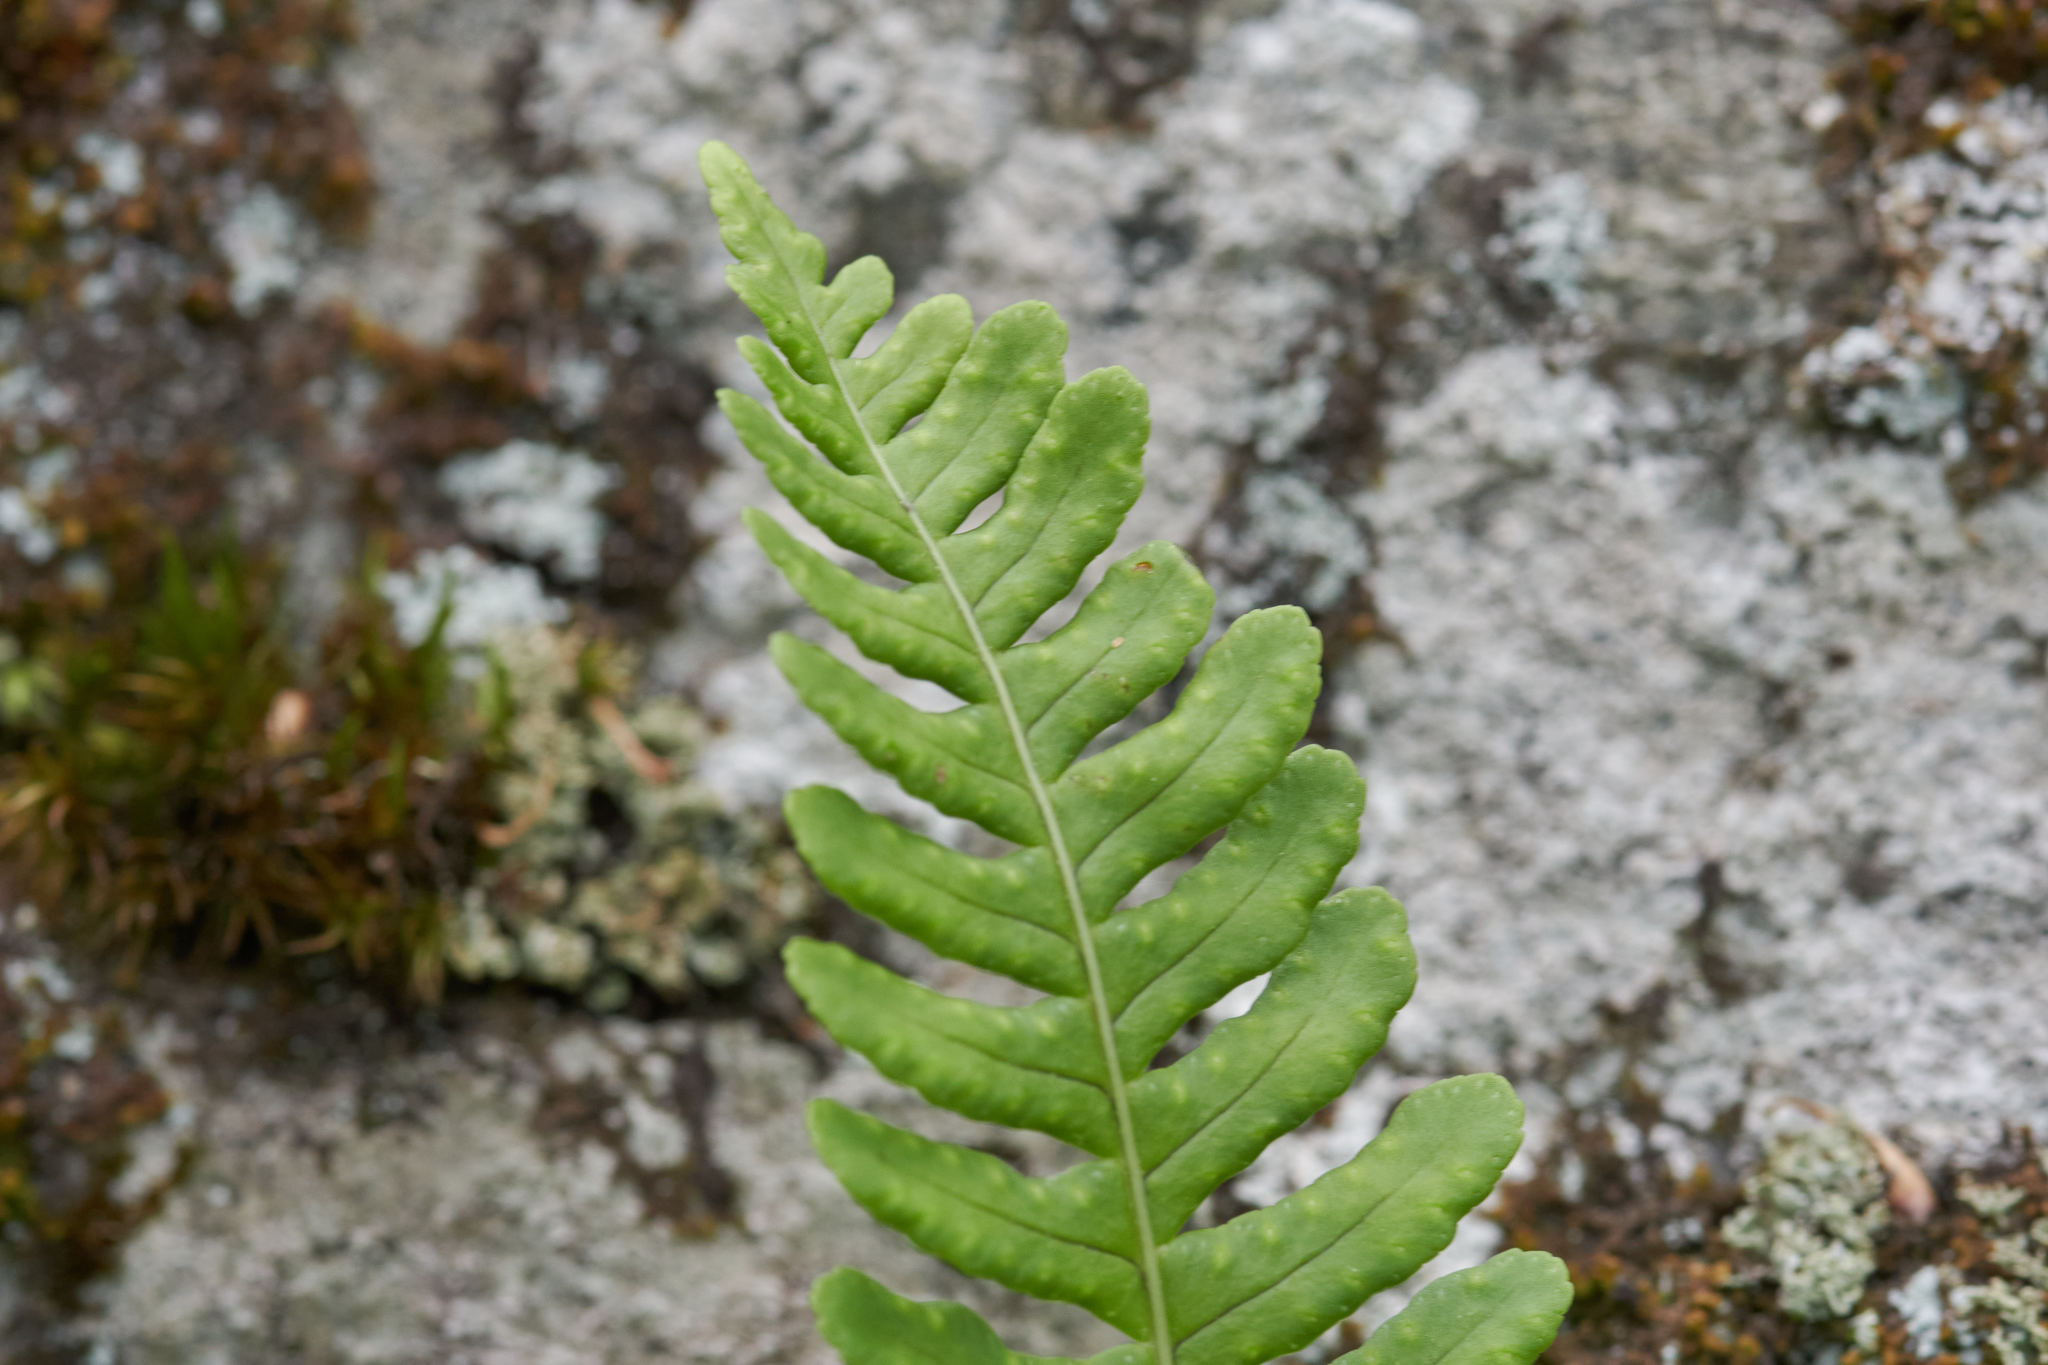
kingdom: Plantae
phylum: Tracheophyta
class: Polypodiopsida
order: Polypodiales
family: Polypodiaceae
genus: Polypodium
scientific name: Polypodium virginianum
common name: American wall fern
